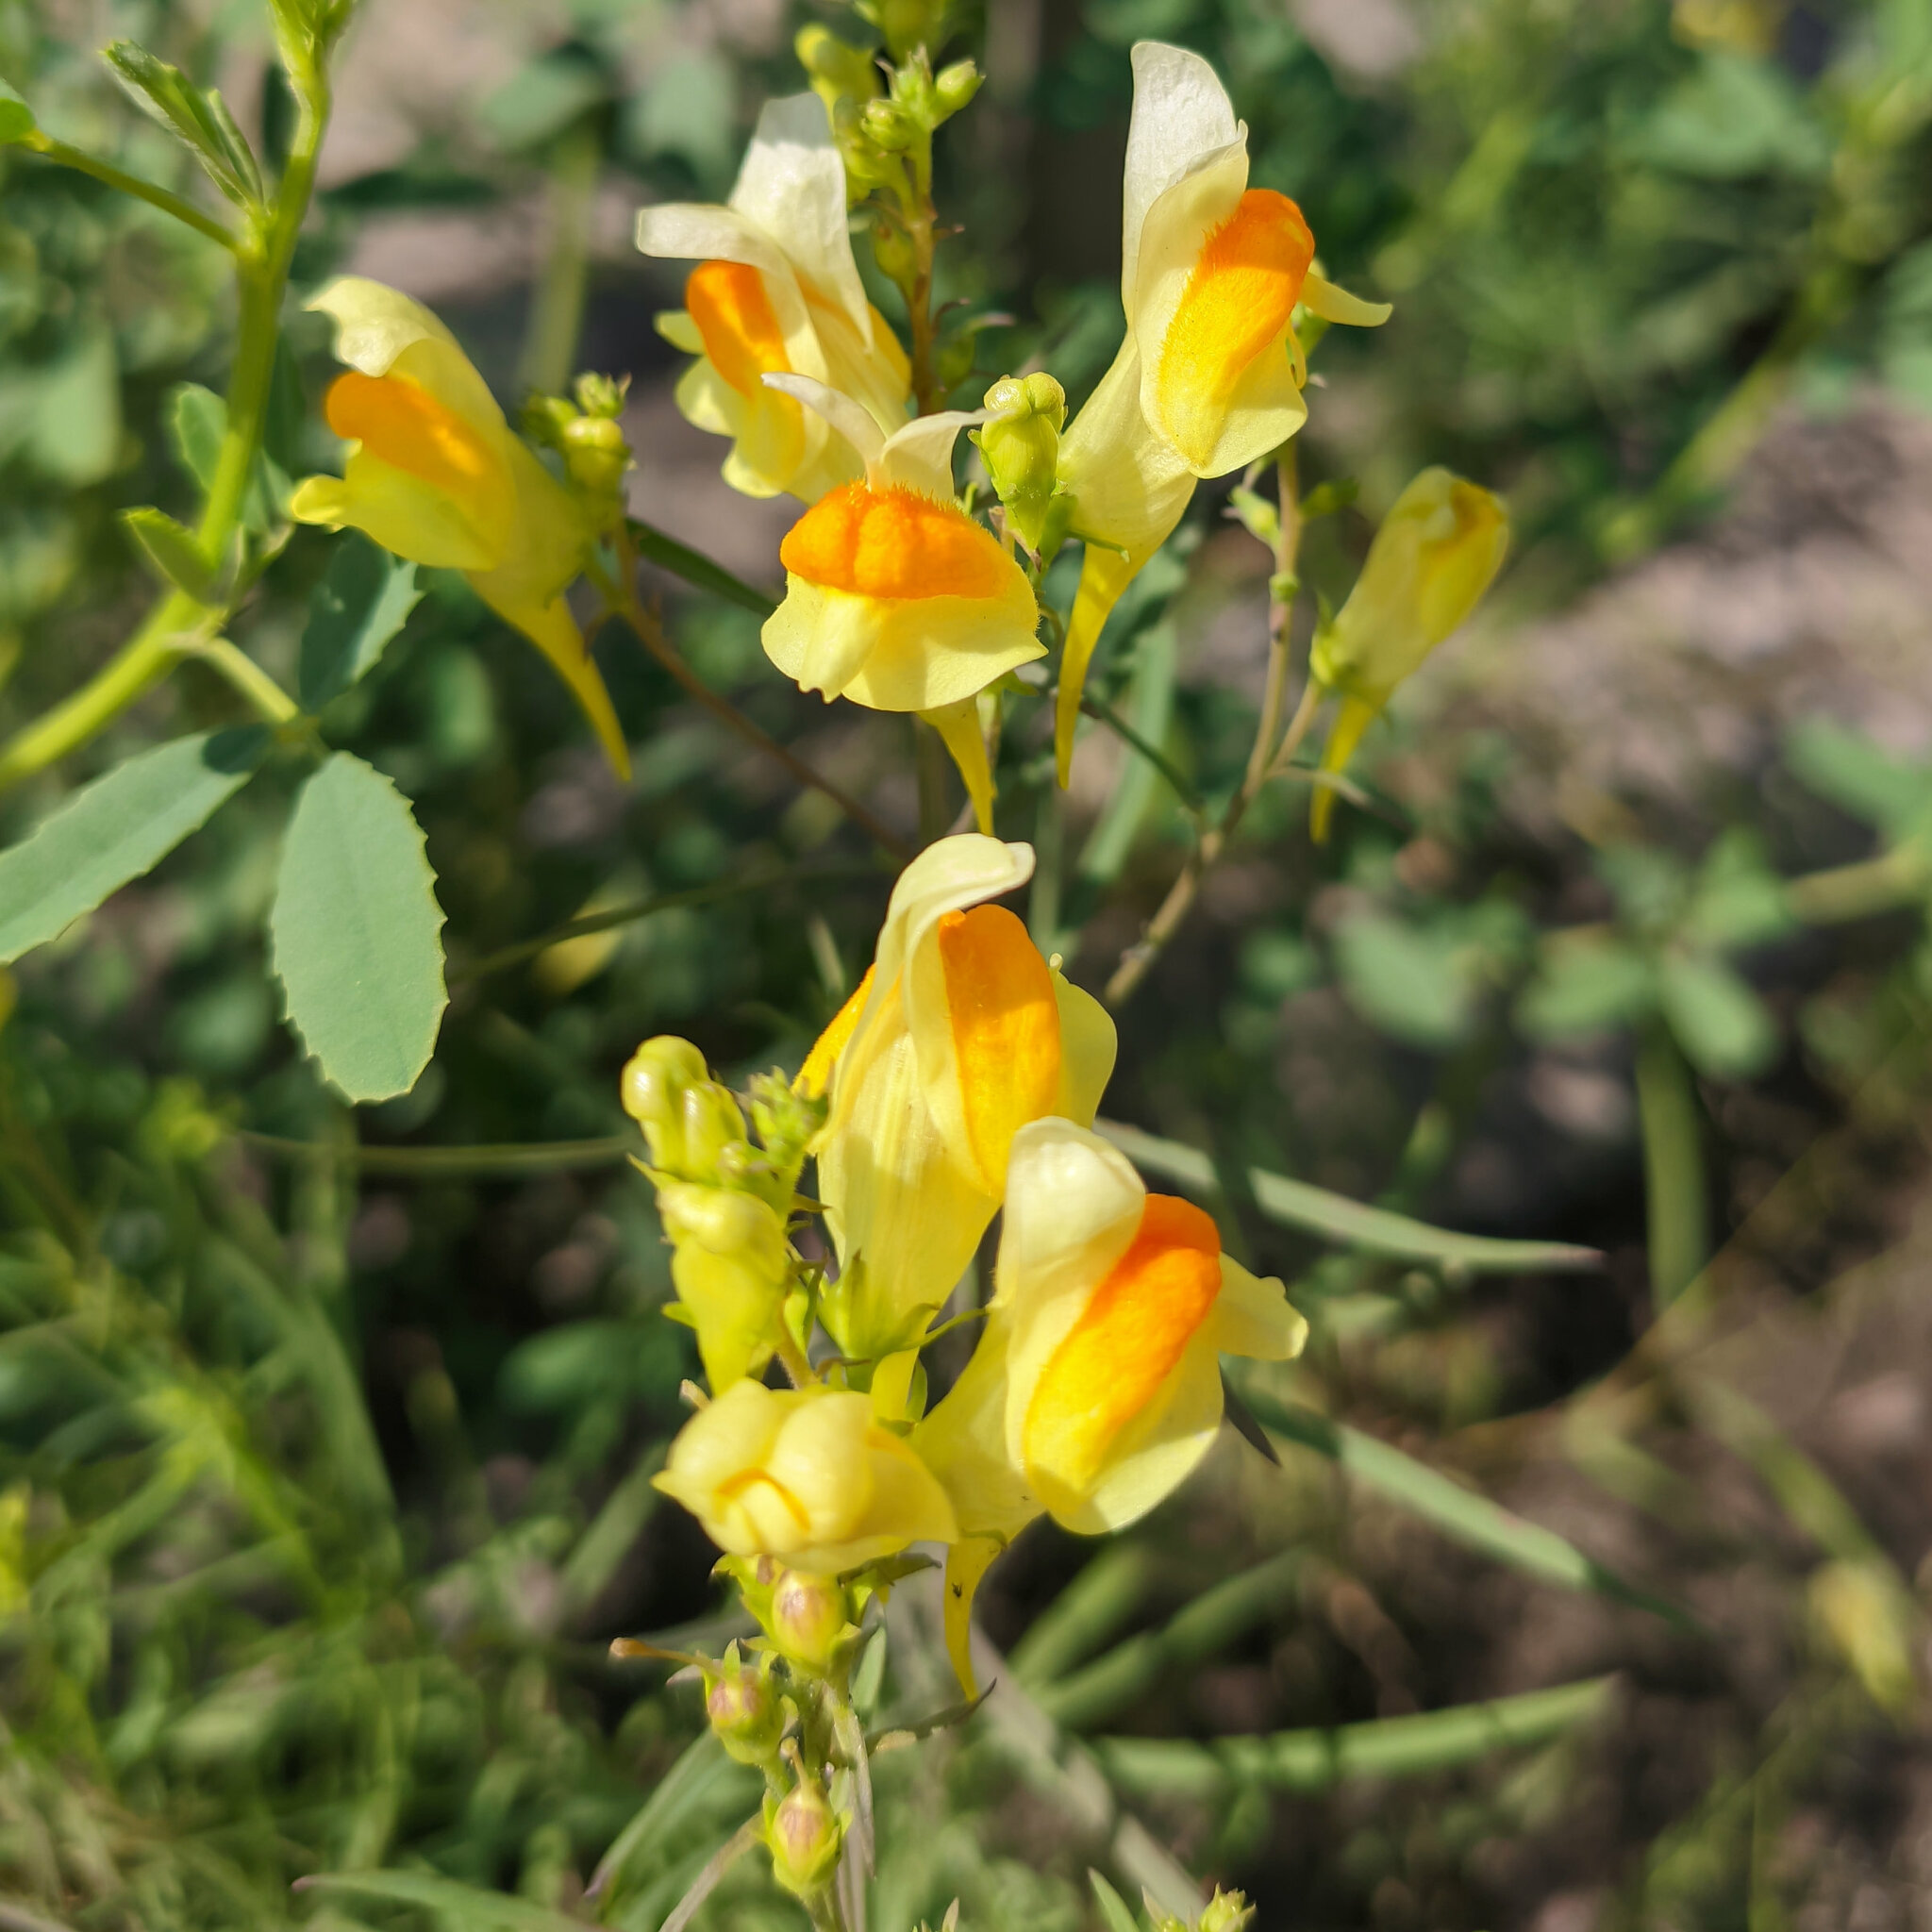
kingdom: Plantae
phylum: Tracheophyta
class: Magnoliopsida
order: Lamiales
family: Plantaginaceae
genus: Linaria
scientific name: Linaria vulgaris
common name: Butter and eggs
